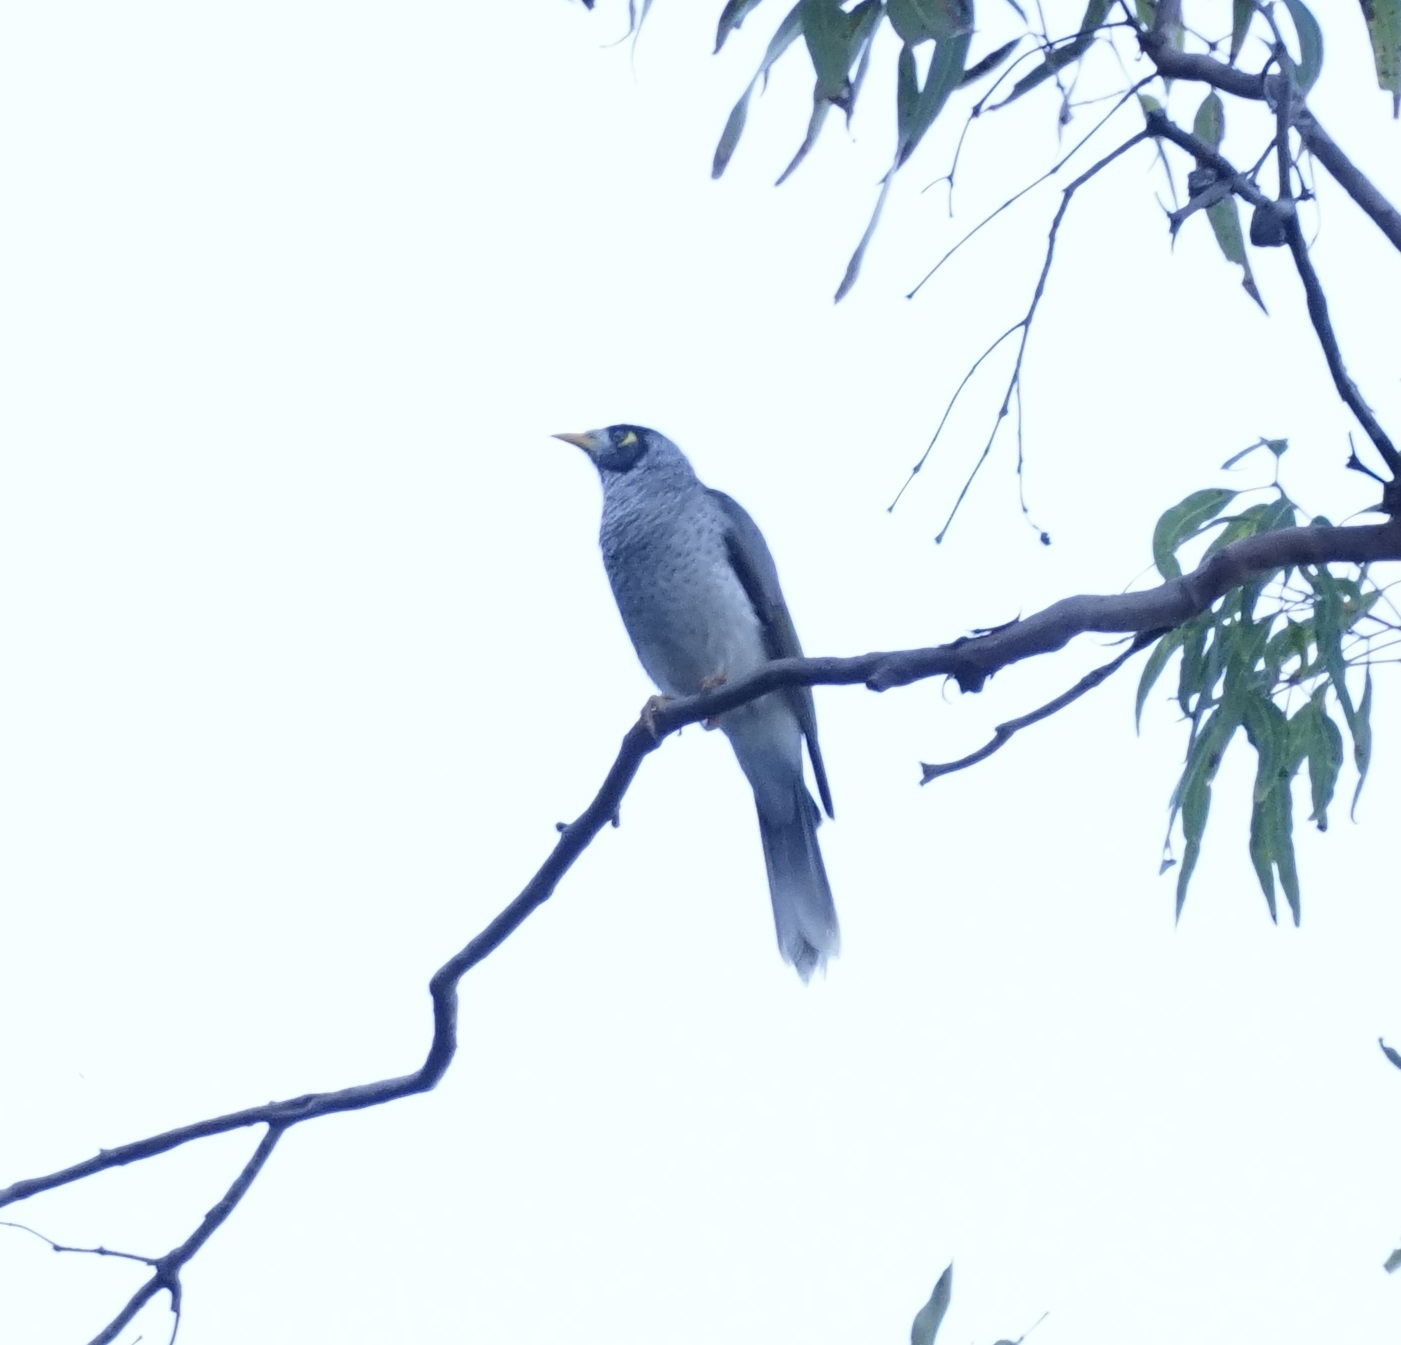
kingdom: Animalia
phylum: Chordata
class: Aves
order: Passeriformes
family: Meliphagidae
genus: Manorina
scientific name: Manorina melanocephala
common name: Noisy miner
